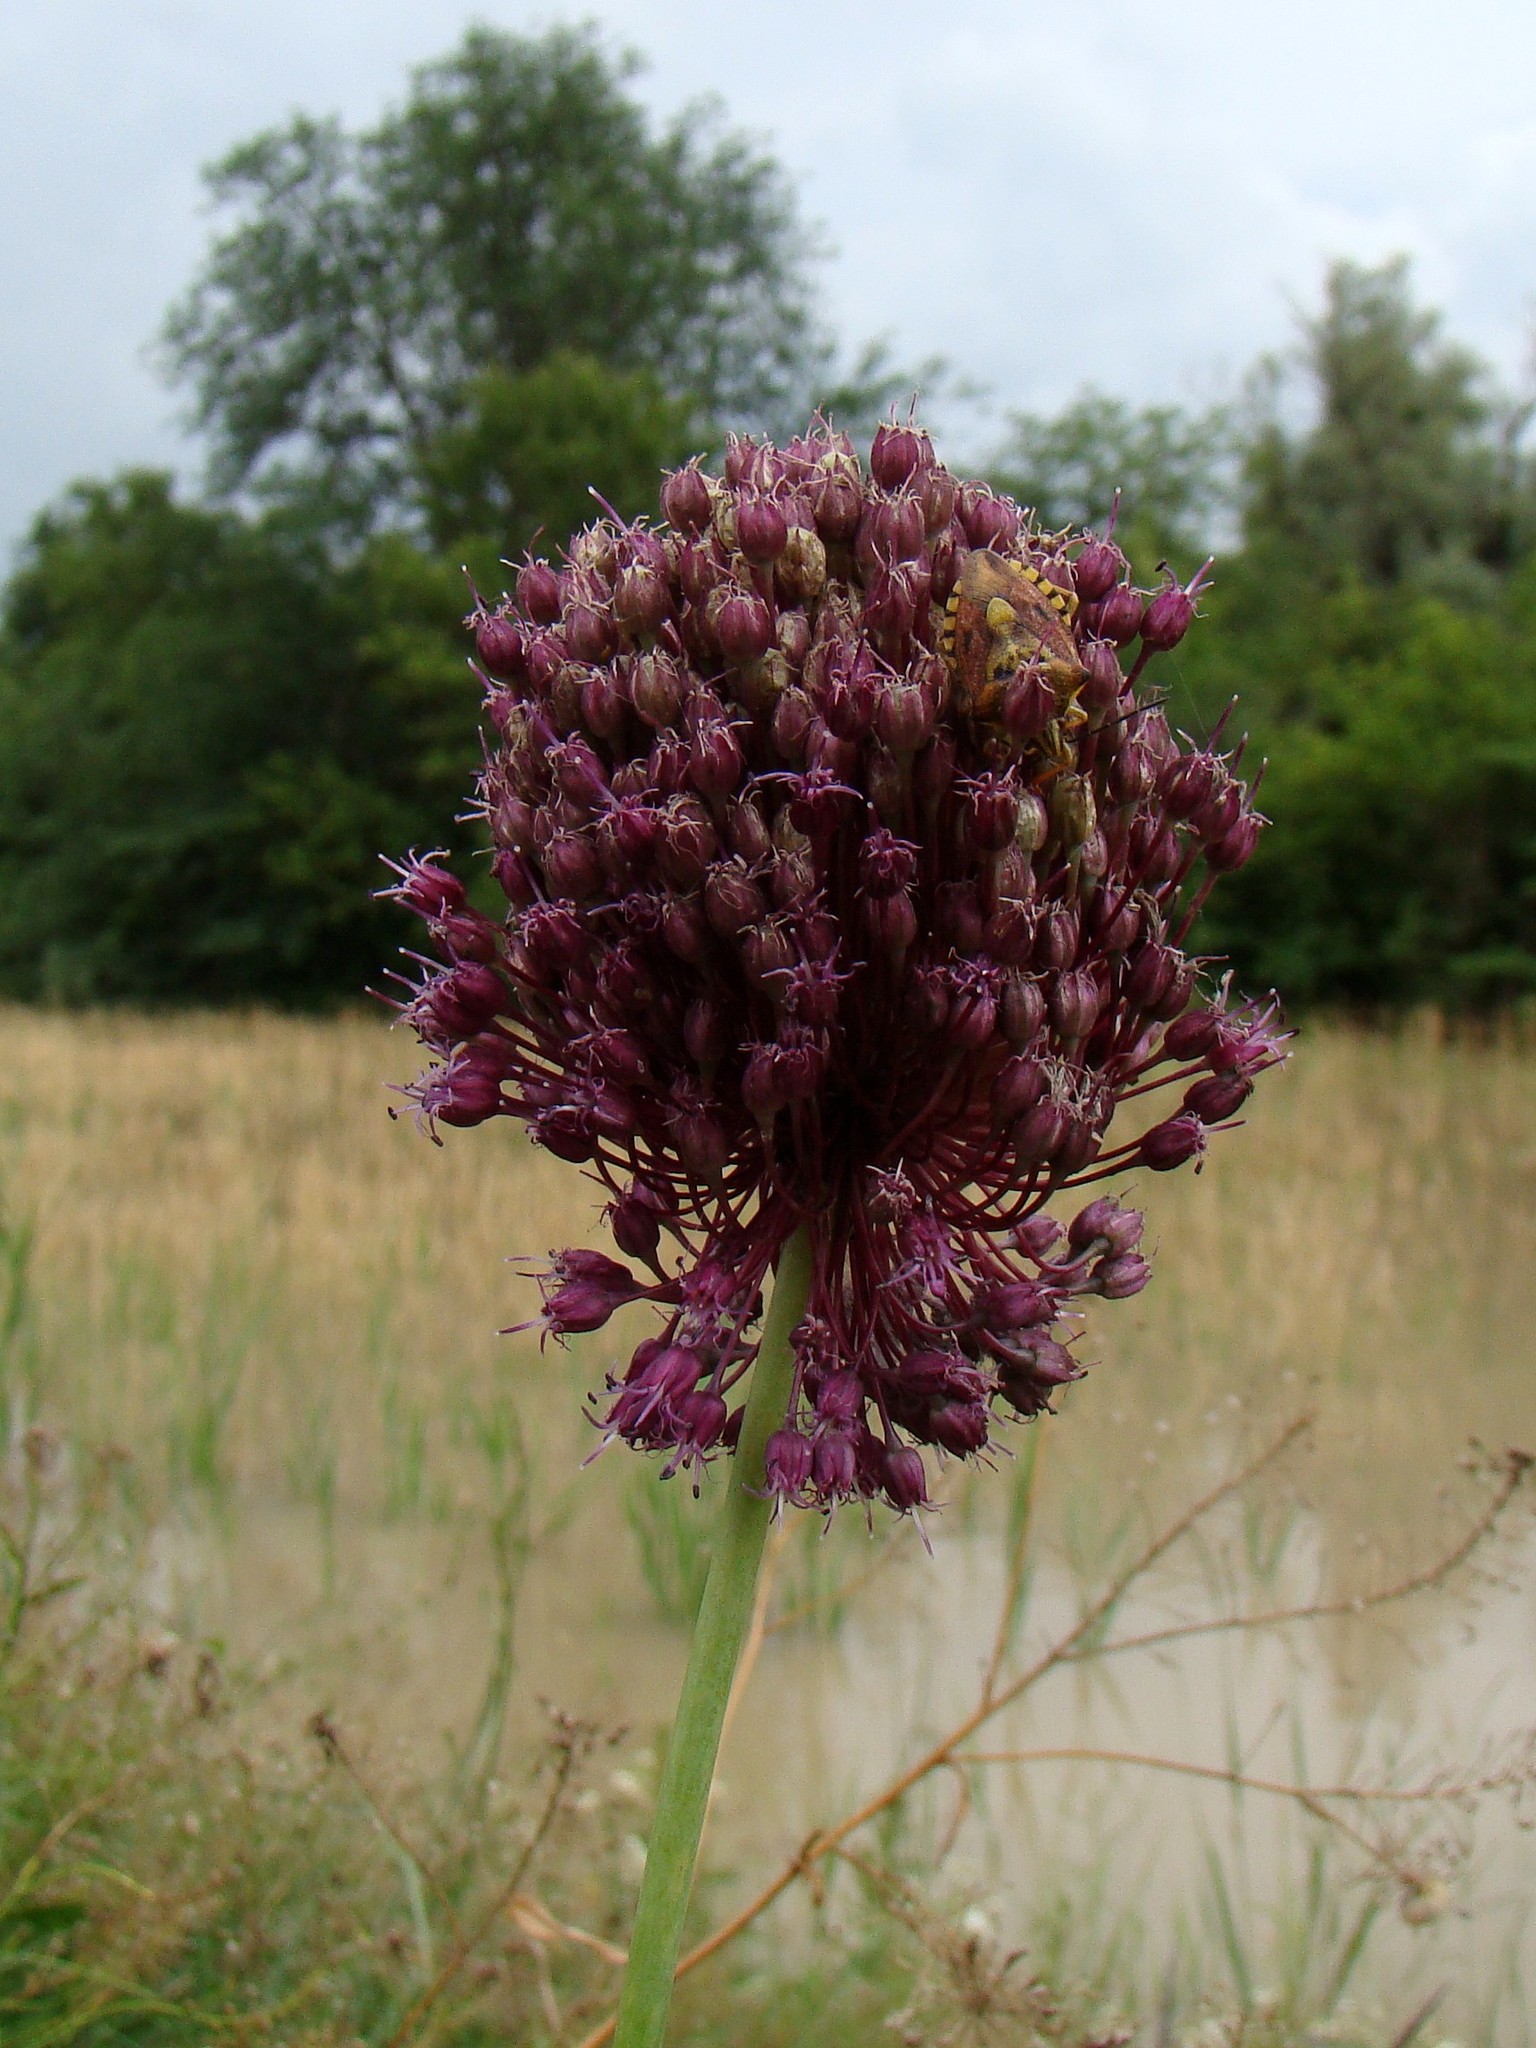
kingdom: Plantae
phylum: Tracheophyta
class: Liliopsida
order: Asparagales
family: Amaryllidaceae
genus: Allium
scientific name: Allium atroviolaceum
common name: Broadleaf wild leek
